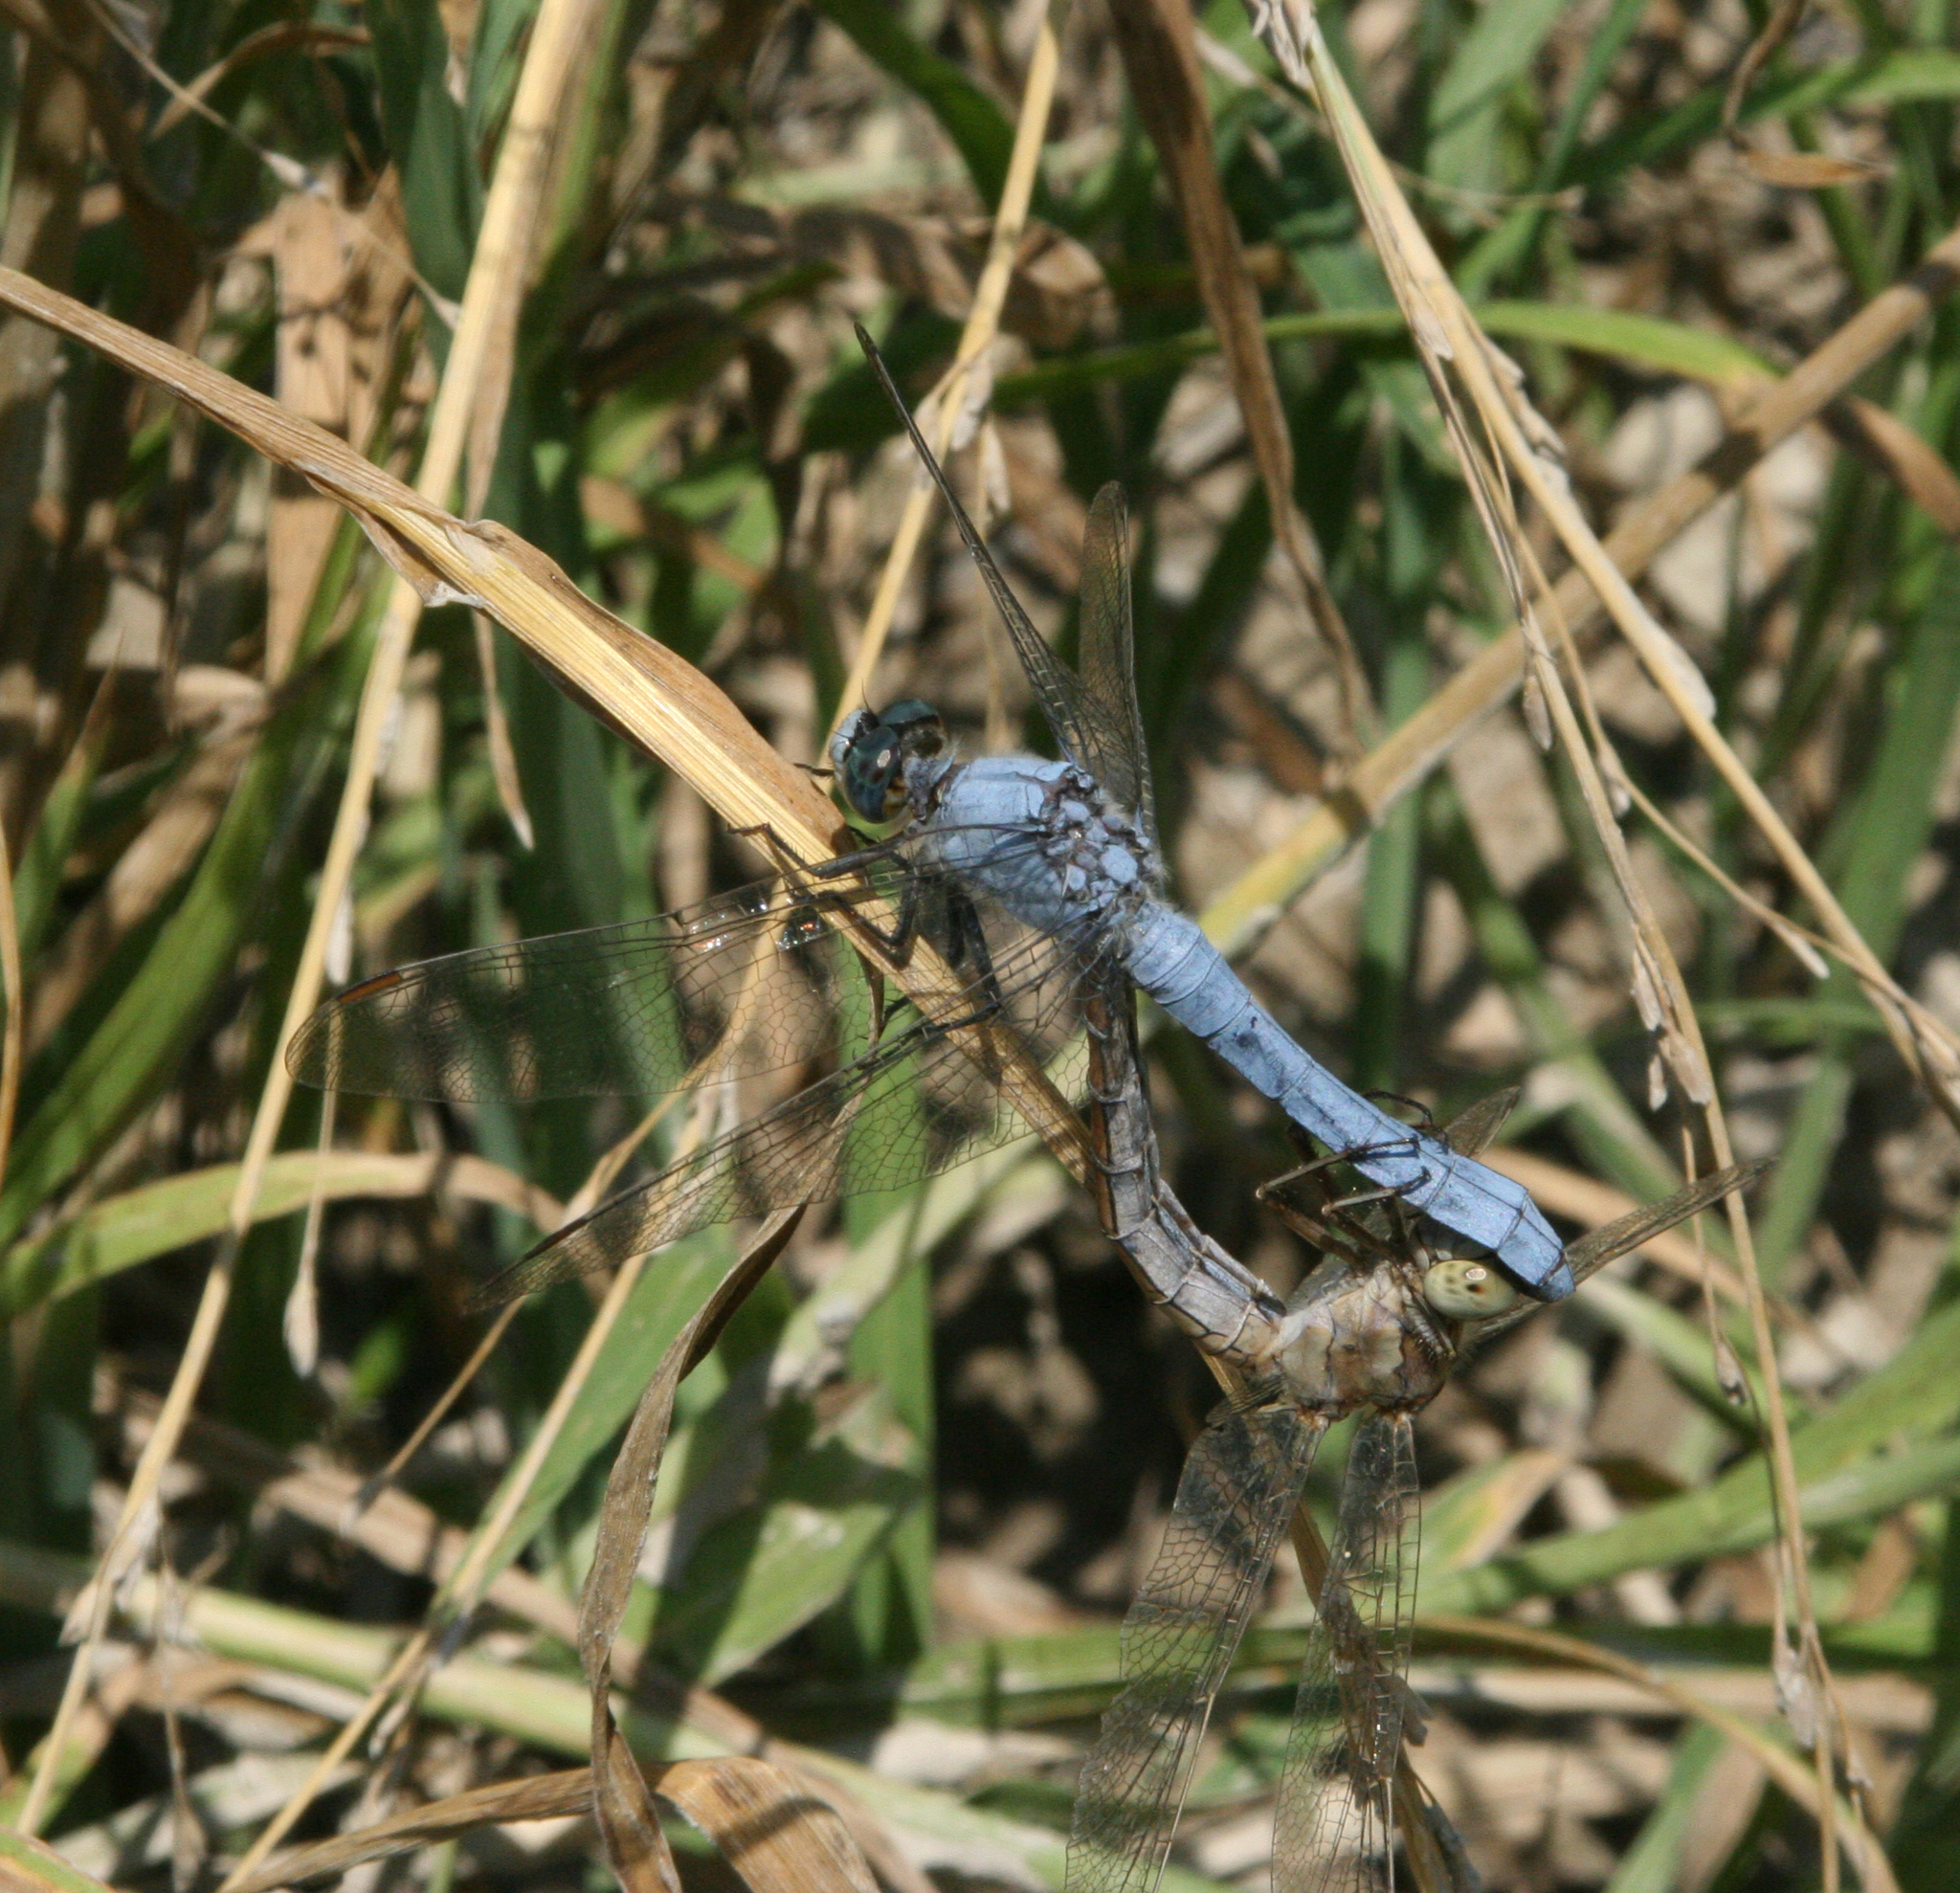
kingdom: Animalia
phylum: Arthropoda
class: Insecta
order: Odonata
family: Libellulidae
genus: Orthetrum
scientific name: Orthetrum brunneum
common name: Southern skimmer
